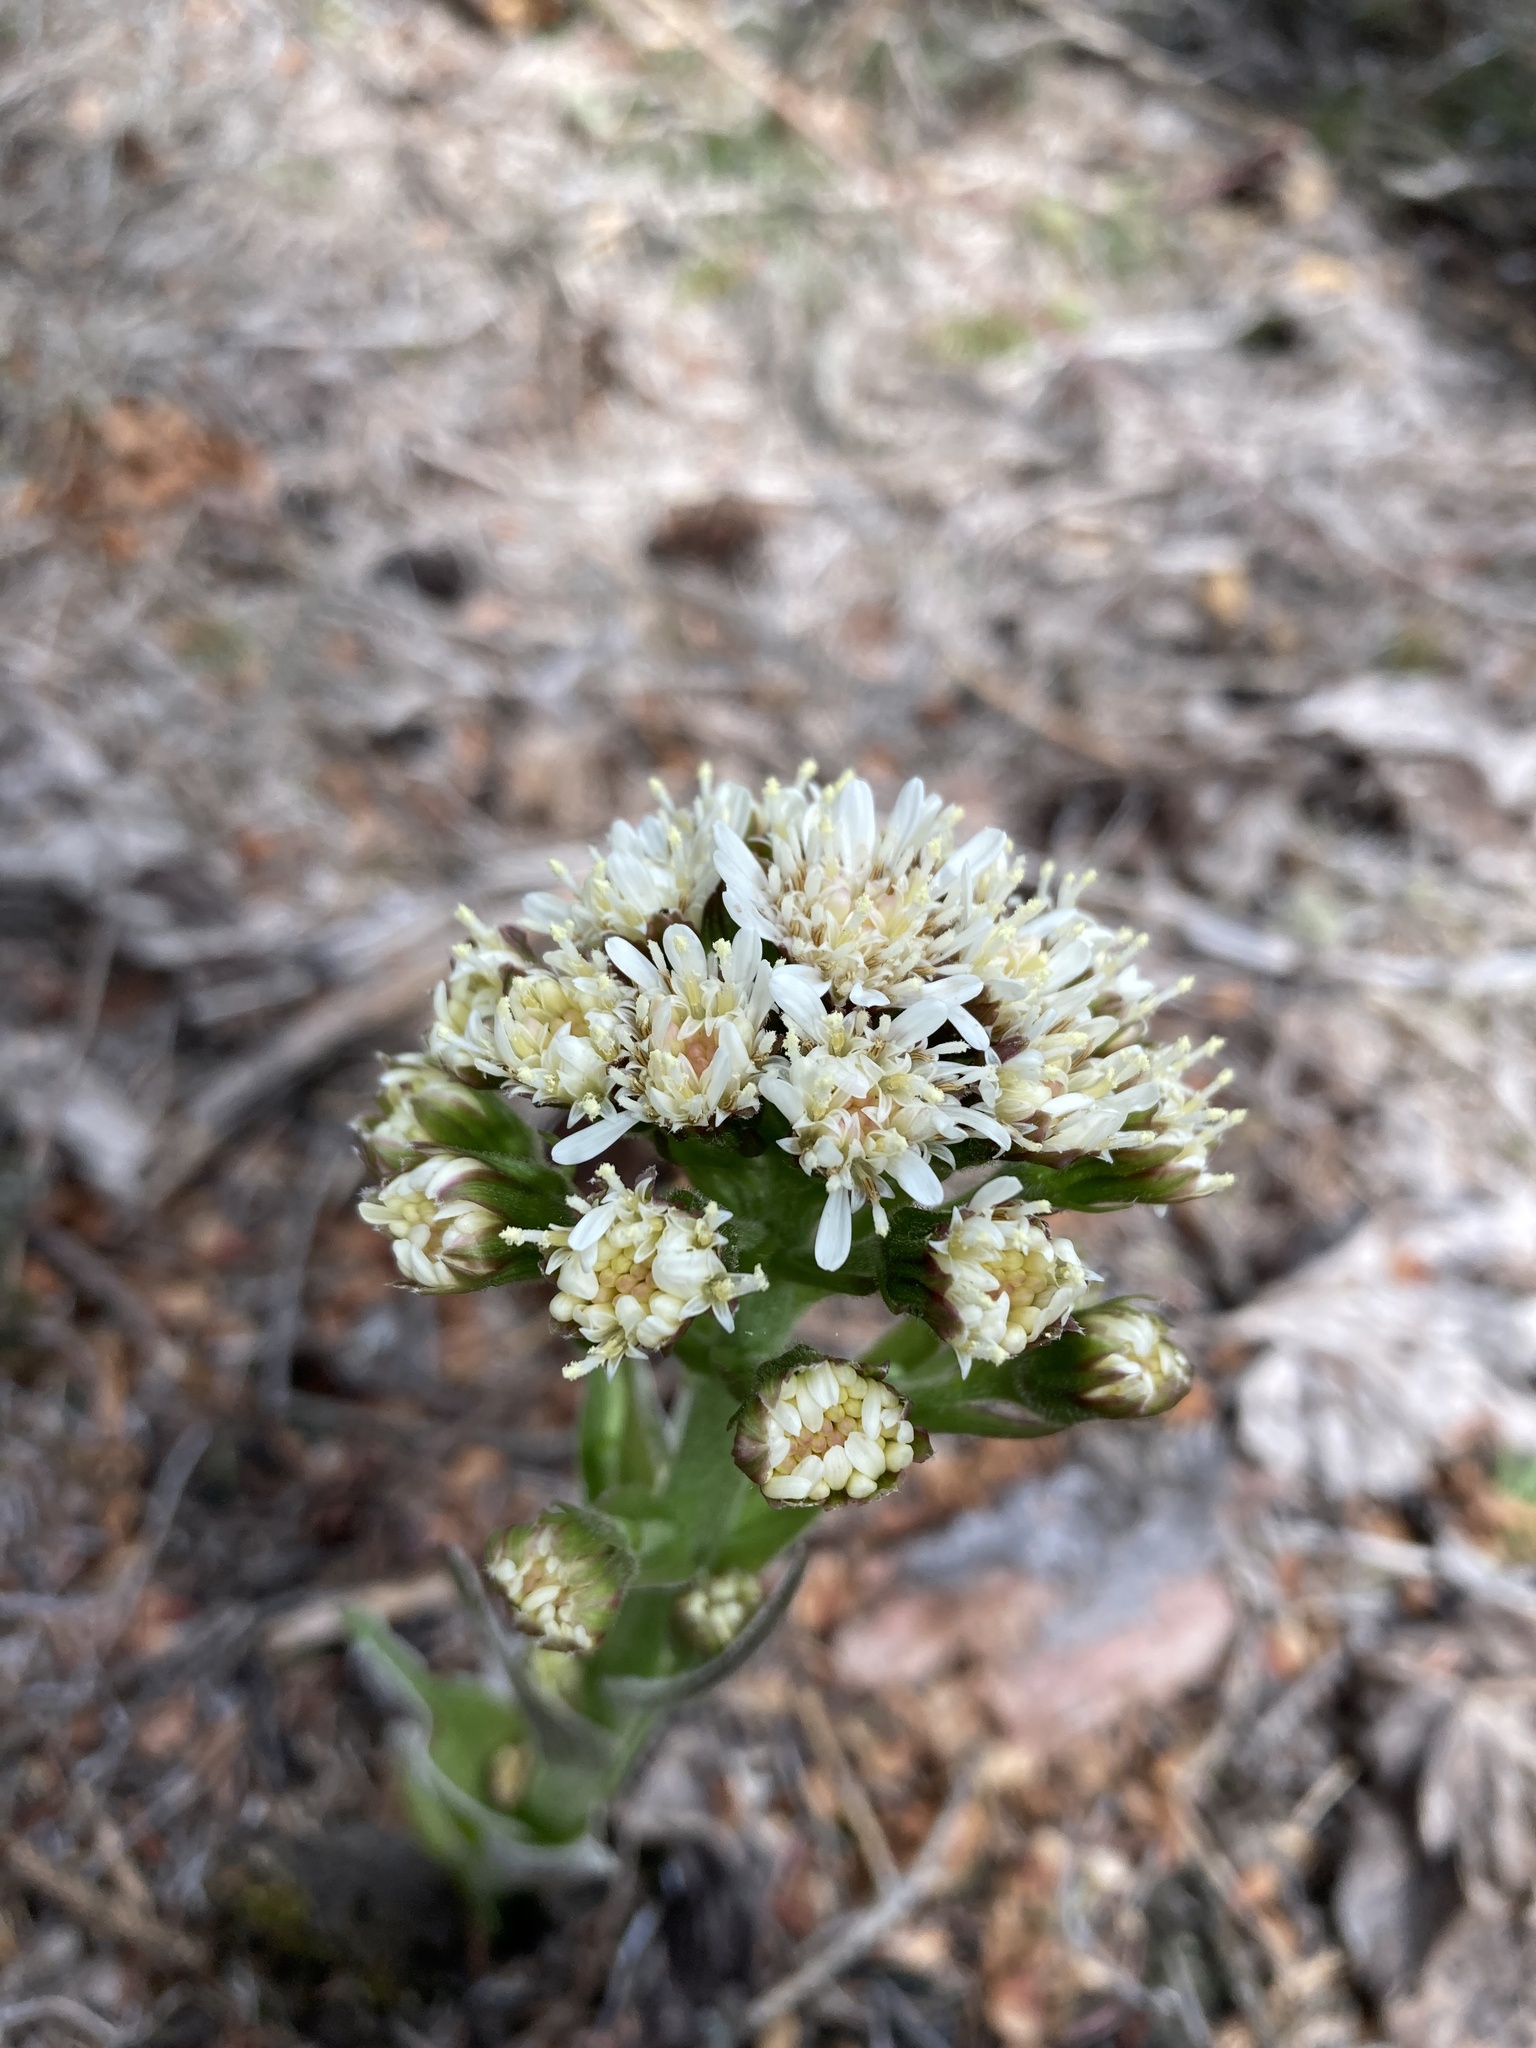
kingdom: Plantae
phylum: Tracheophyta
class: Magnoliopsida
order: Asterales
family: Asteraceae
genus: Petasites
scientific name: Petasites frigidus
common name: Arctic butterbur
